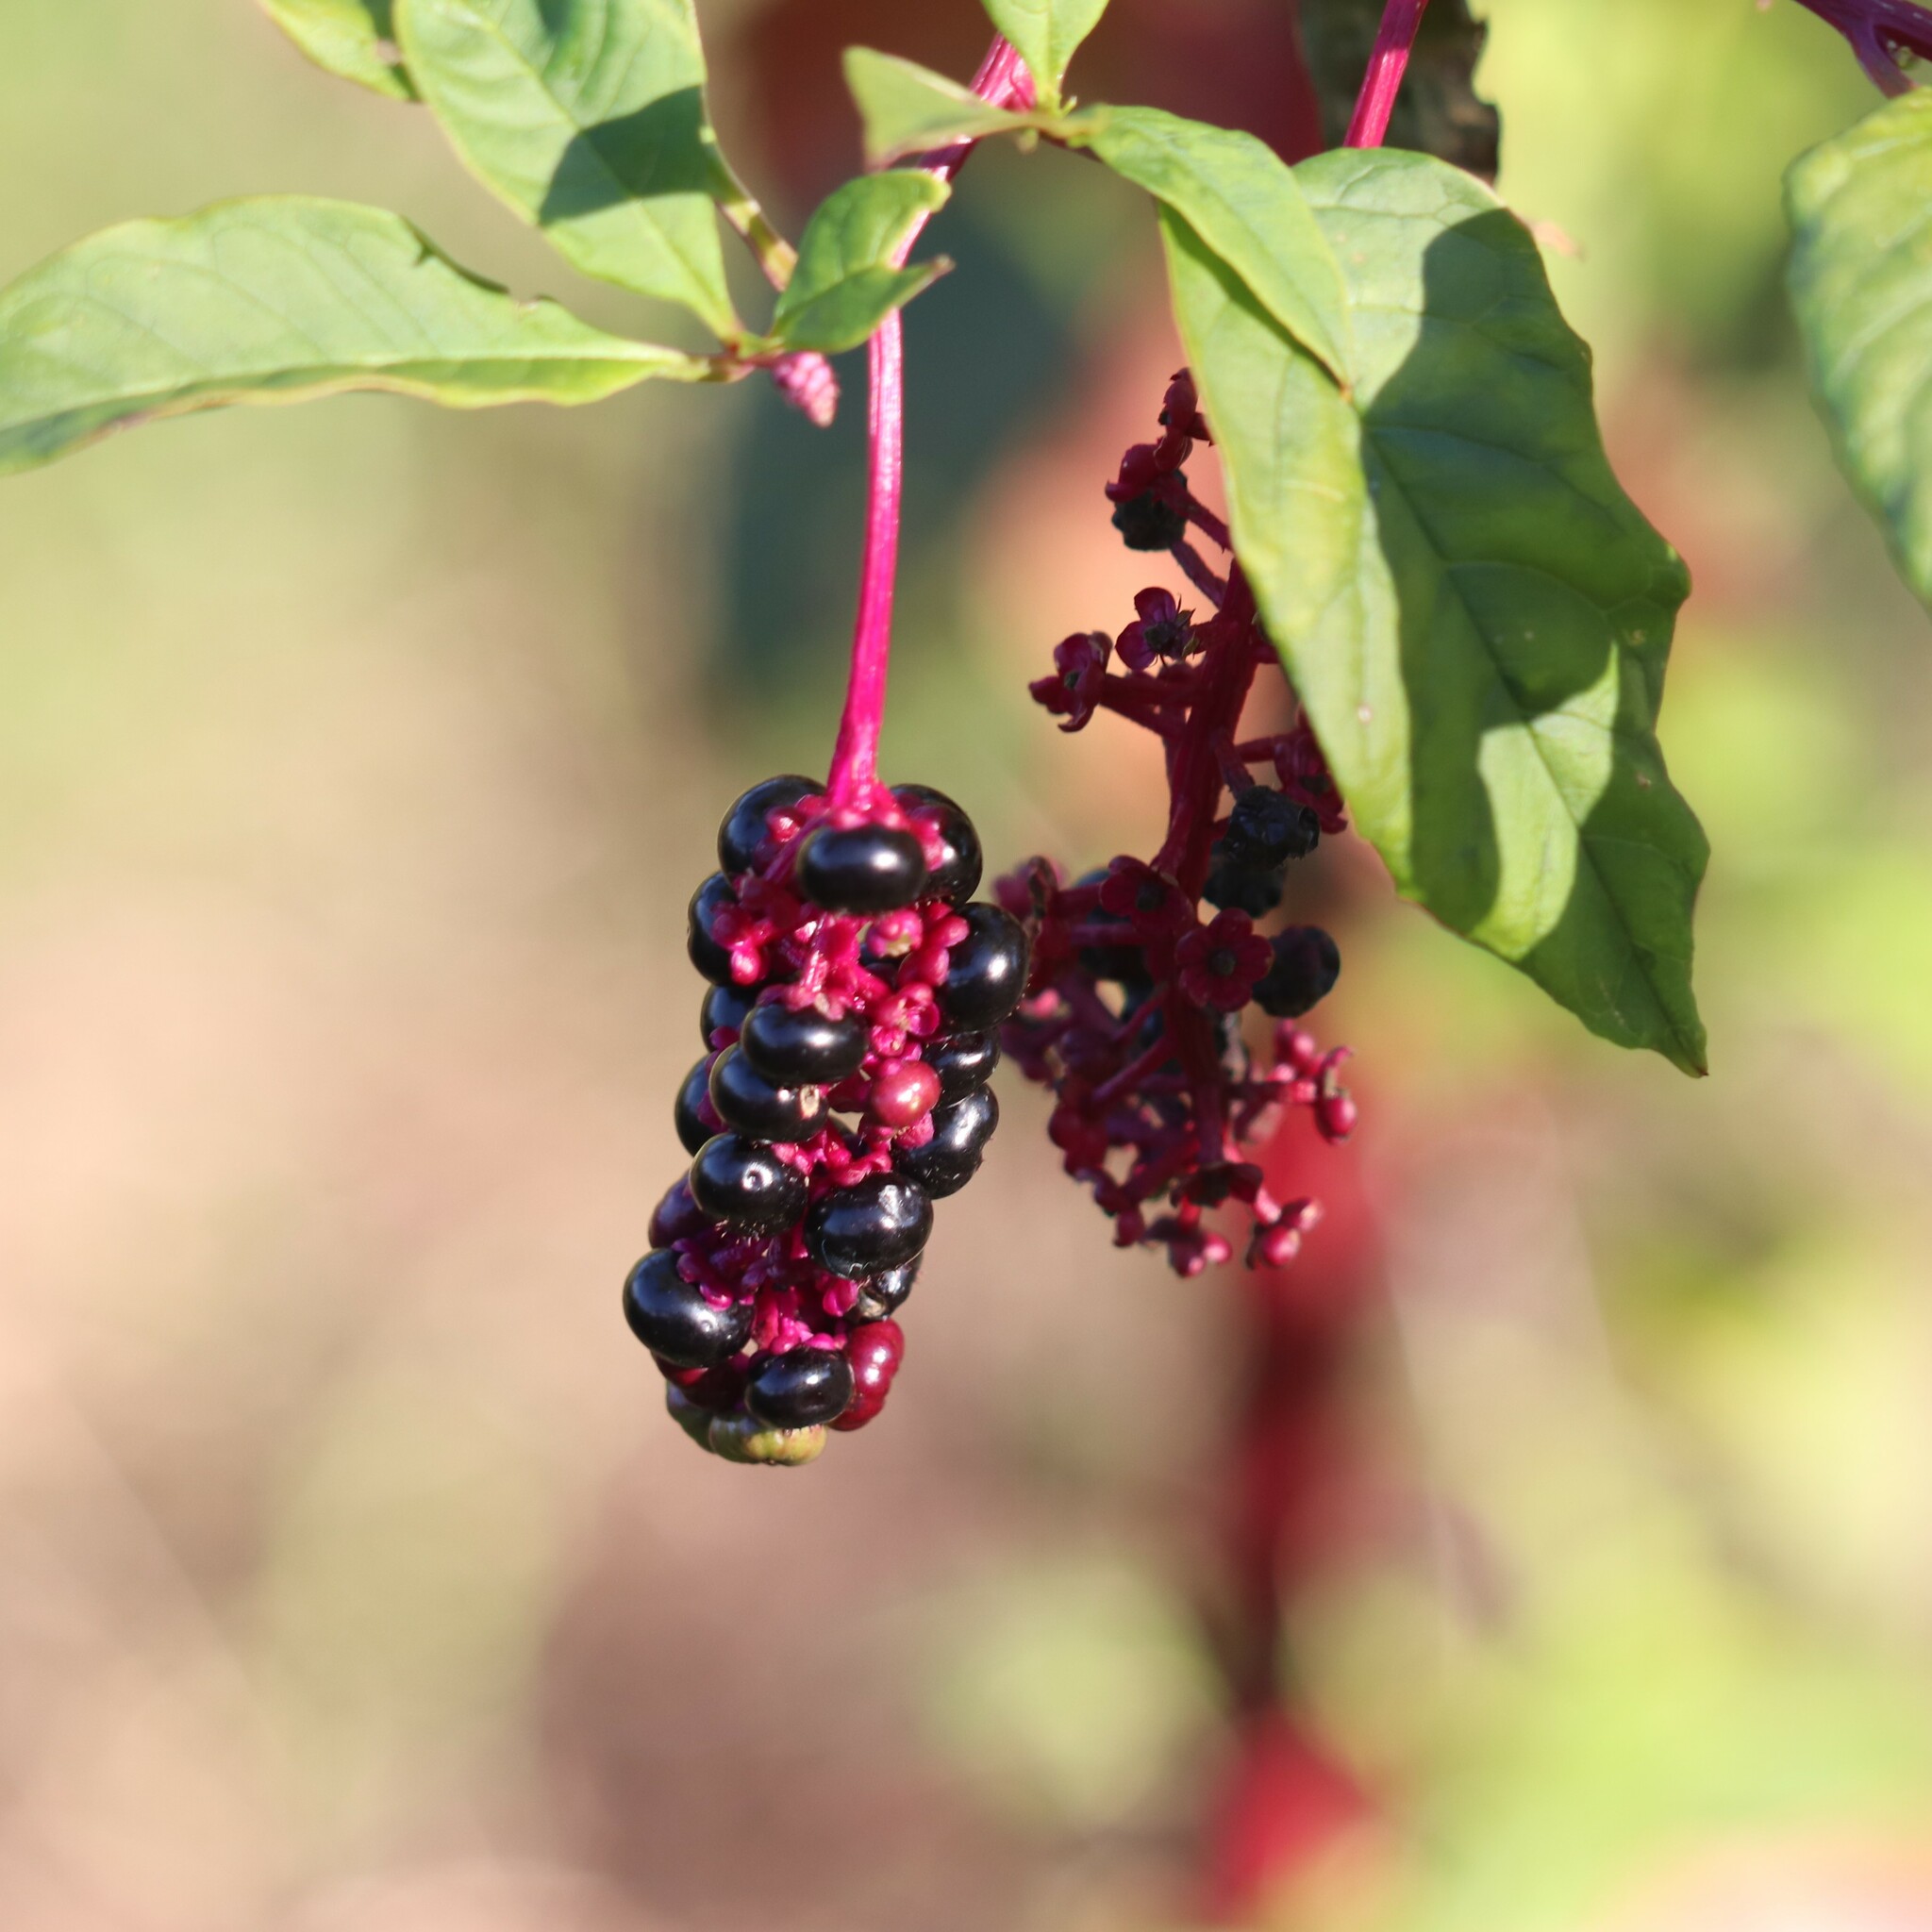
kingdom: Plantae
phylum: Tracheophyta
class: Magnoliopsida
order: Caryophyllales
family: Phytolaccaceae
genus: Phytolacca
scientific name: Phytolacca americana
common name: American pokeweed
